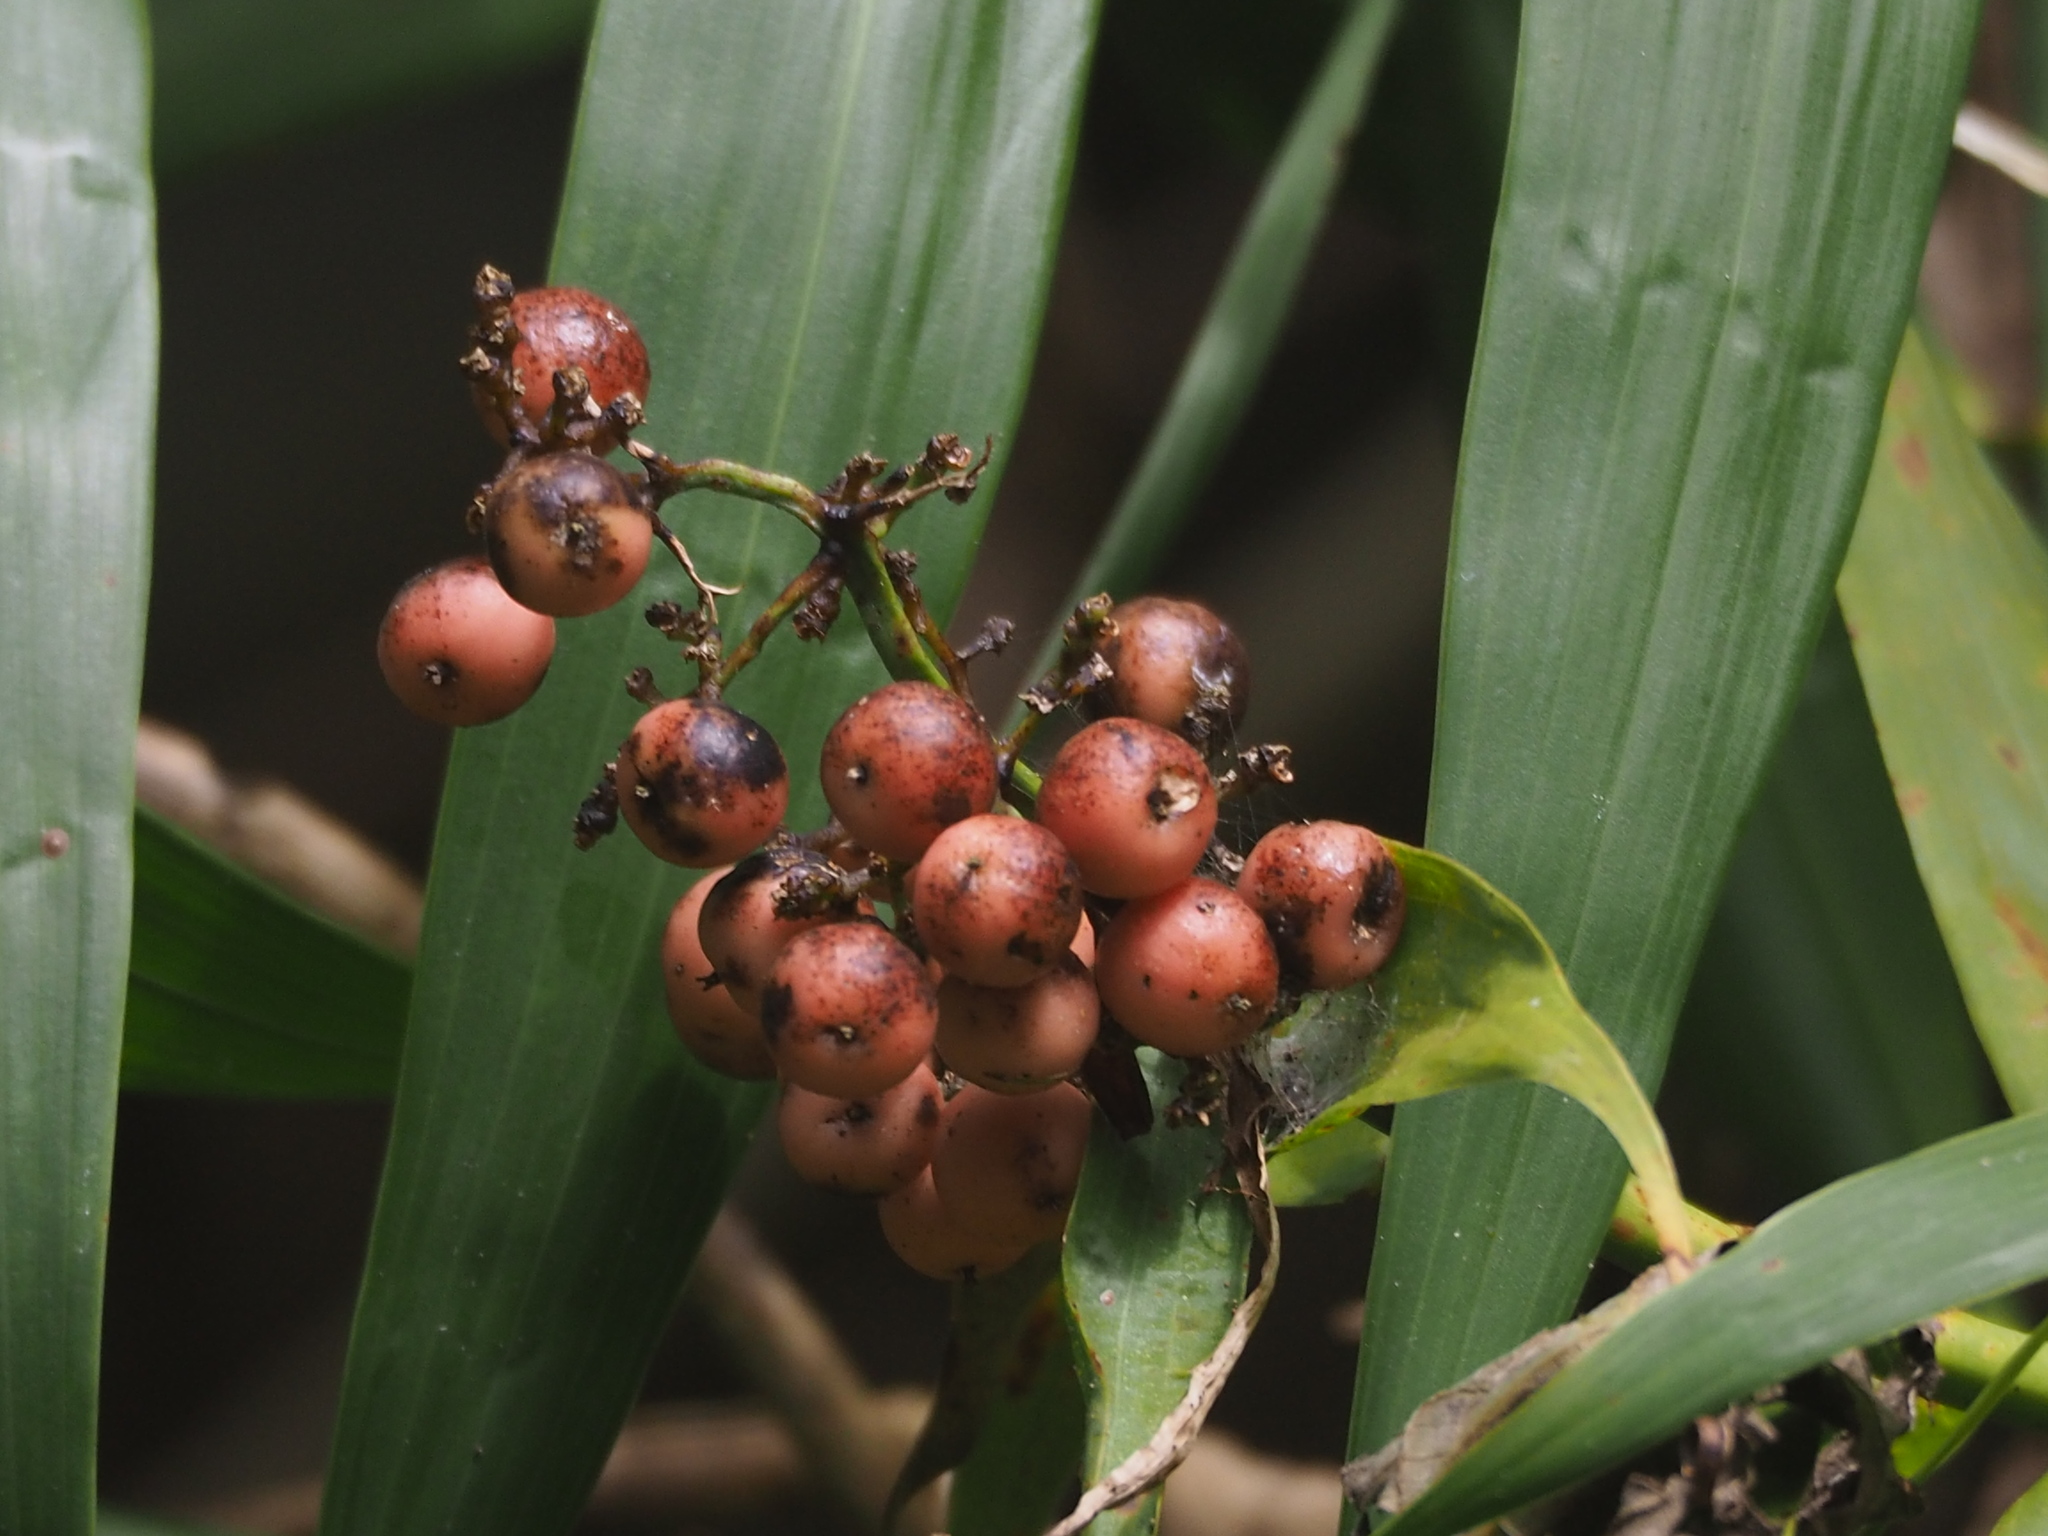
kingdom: Plantae
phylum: Tracheophyta
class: Liliopsida
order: Poales
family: Flagellariaceae
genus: Flagellaria
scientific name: Flagellaria indica
